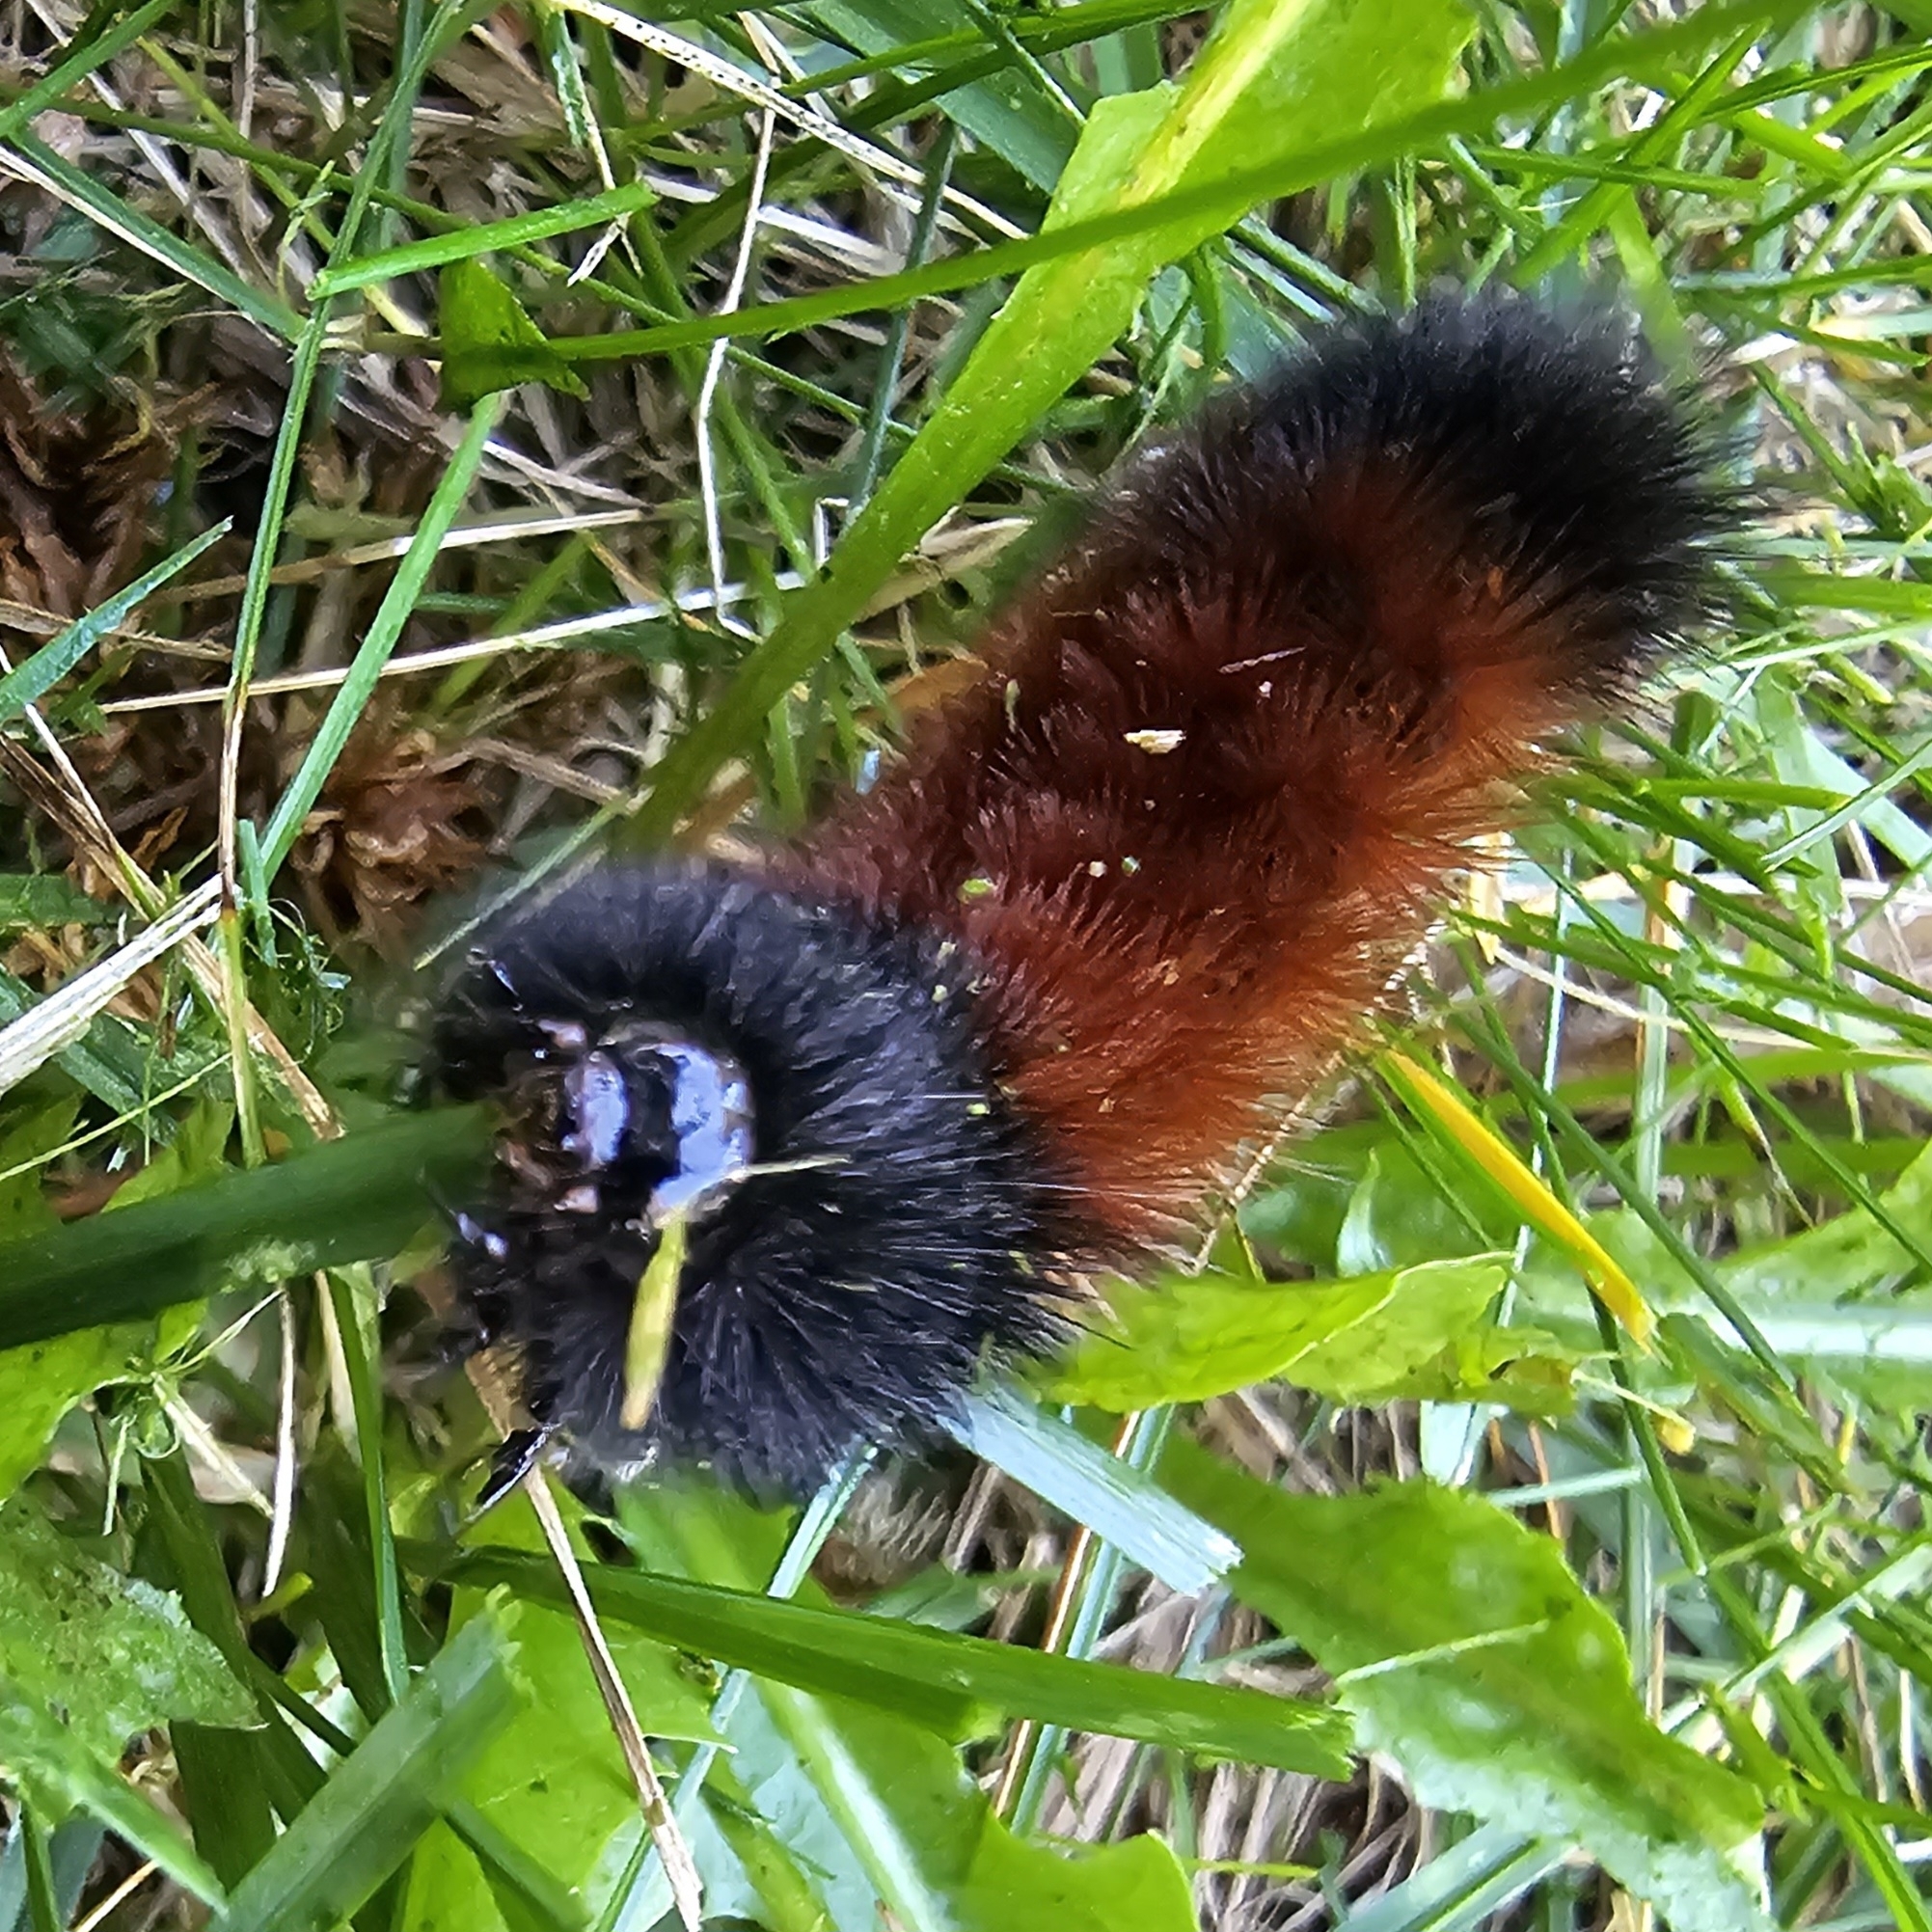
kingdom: Animalia
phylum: Arthropoda
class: Insecta
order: Lepidoptera
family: Erebidae
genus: Pyrrharctia
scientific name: Pyrrharctia isabella
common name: Isabella tiger moth
